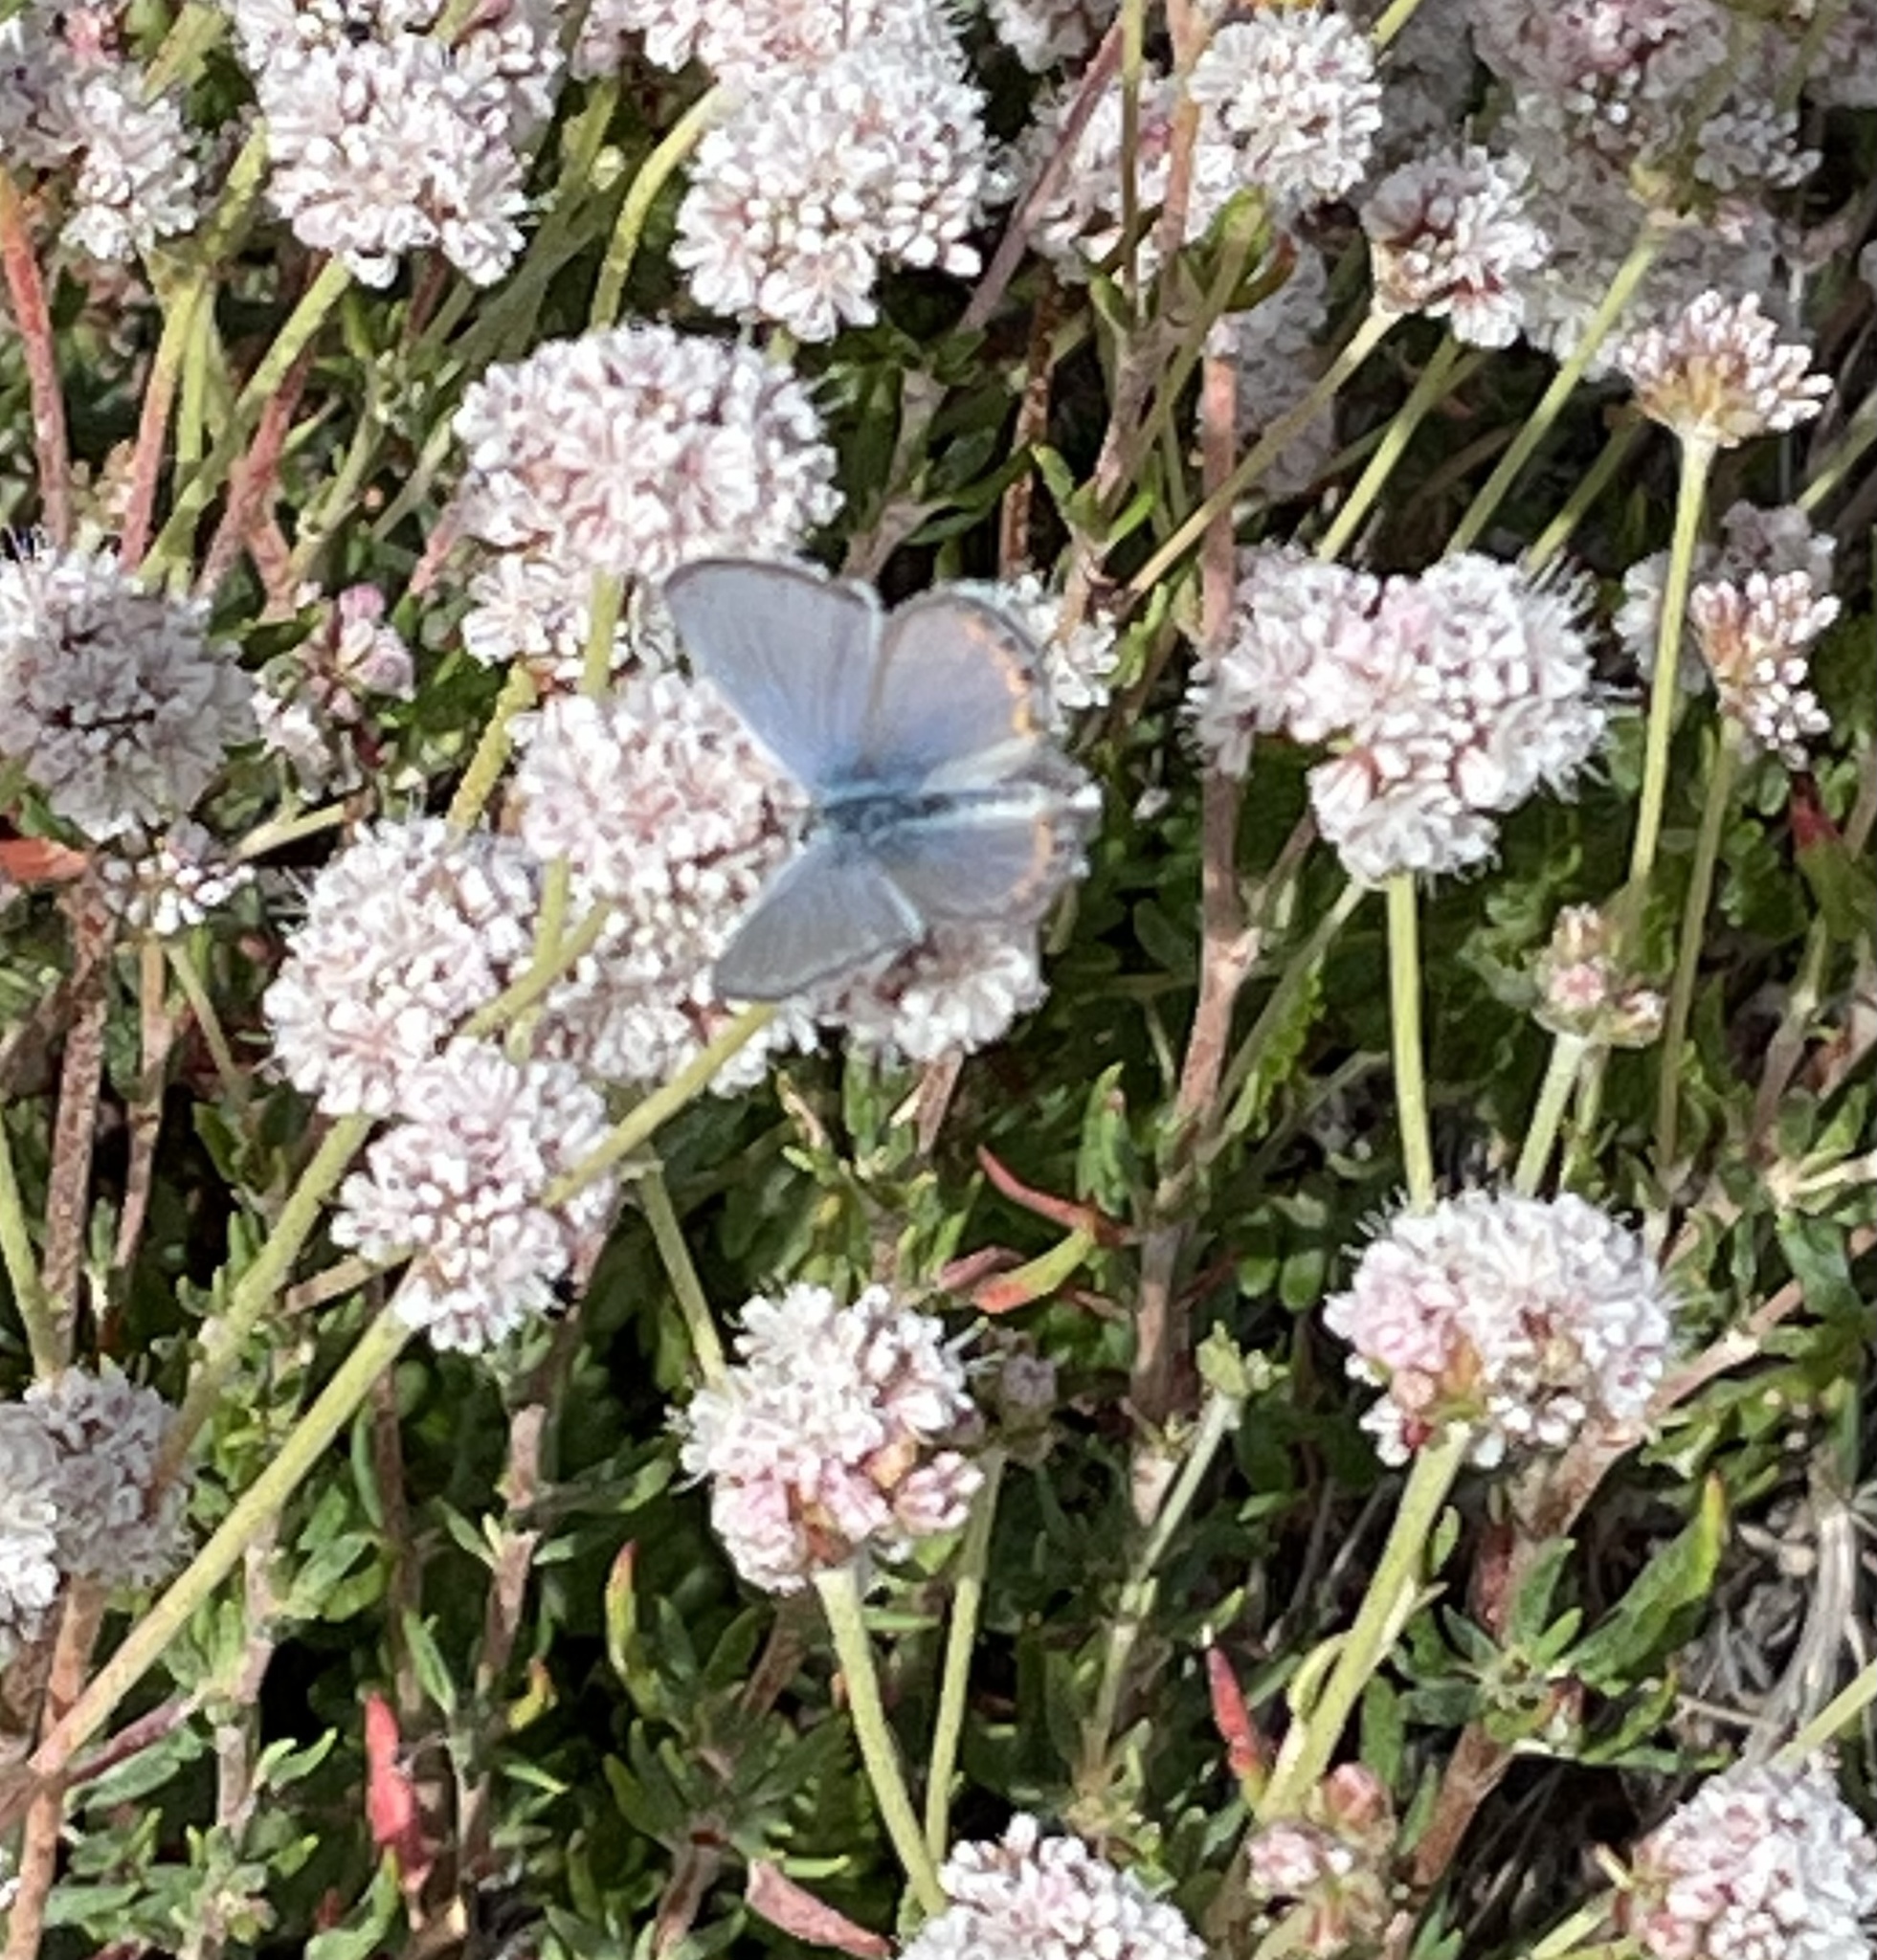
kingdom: Plantae
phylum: Tracheophyta
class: Magnoliopsida
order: Caryophyllales
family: Polygonaceae
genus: Eriogonum
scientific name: Eriogonum parvifolium
